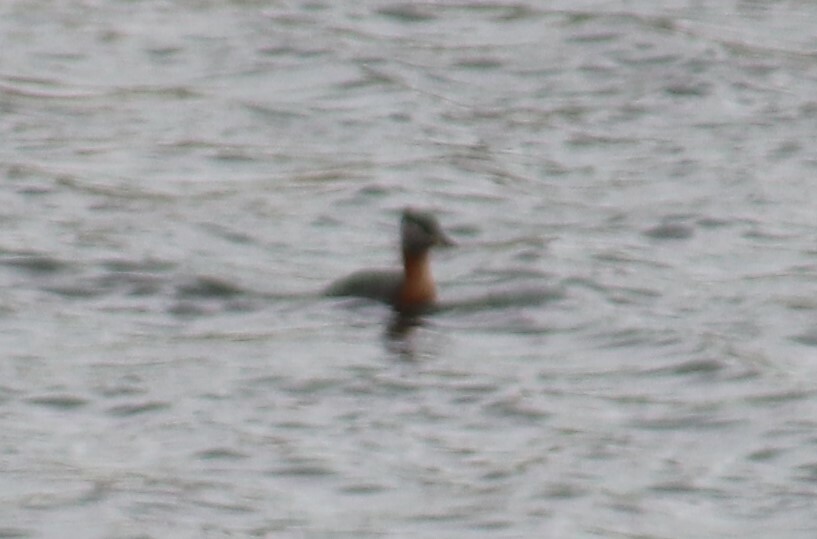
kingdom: Animalia
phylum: Chordata
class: Aves
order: Podicipediformes
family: Podicipedidae
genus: Podiceps
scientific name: Podiceps grisegena
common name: Red-necked grebe
